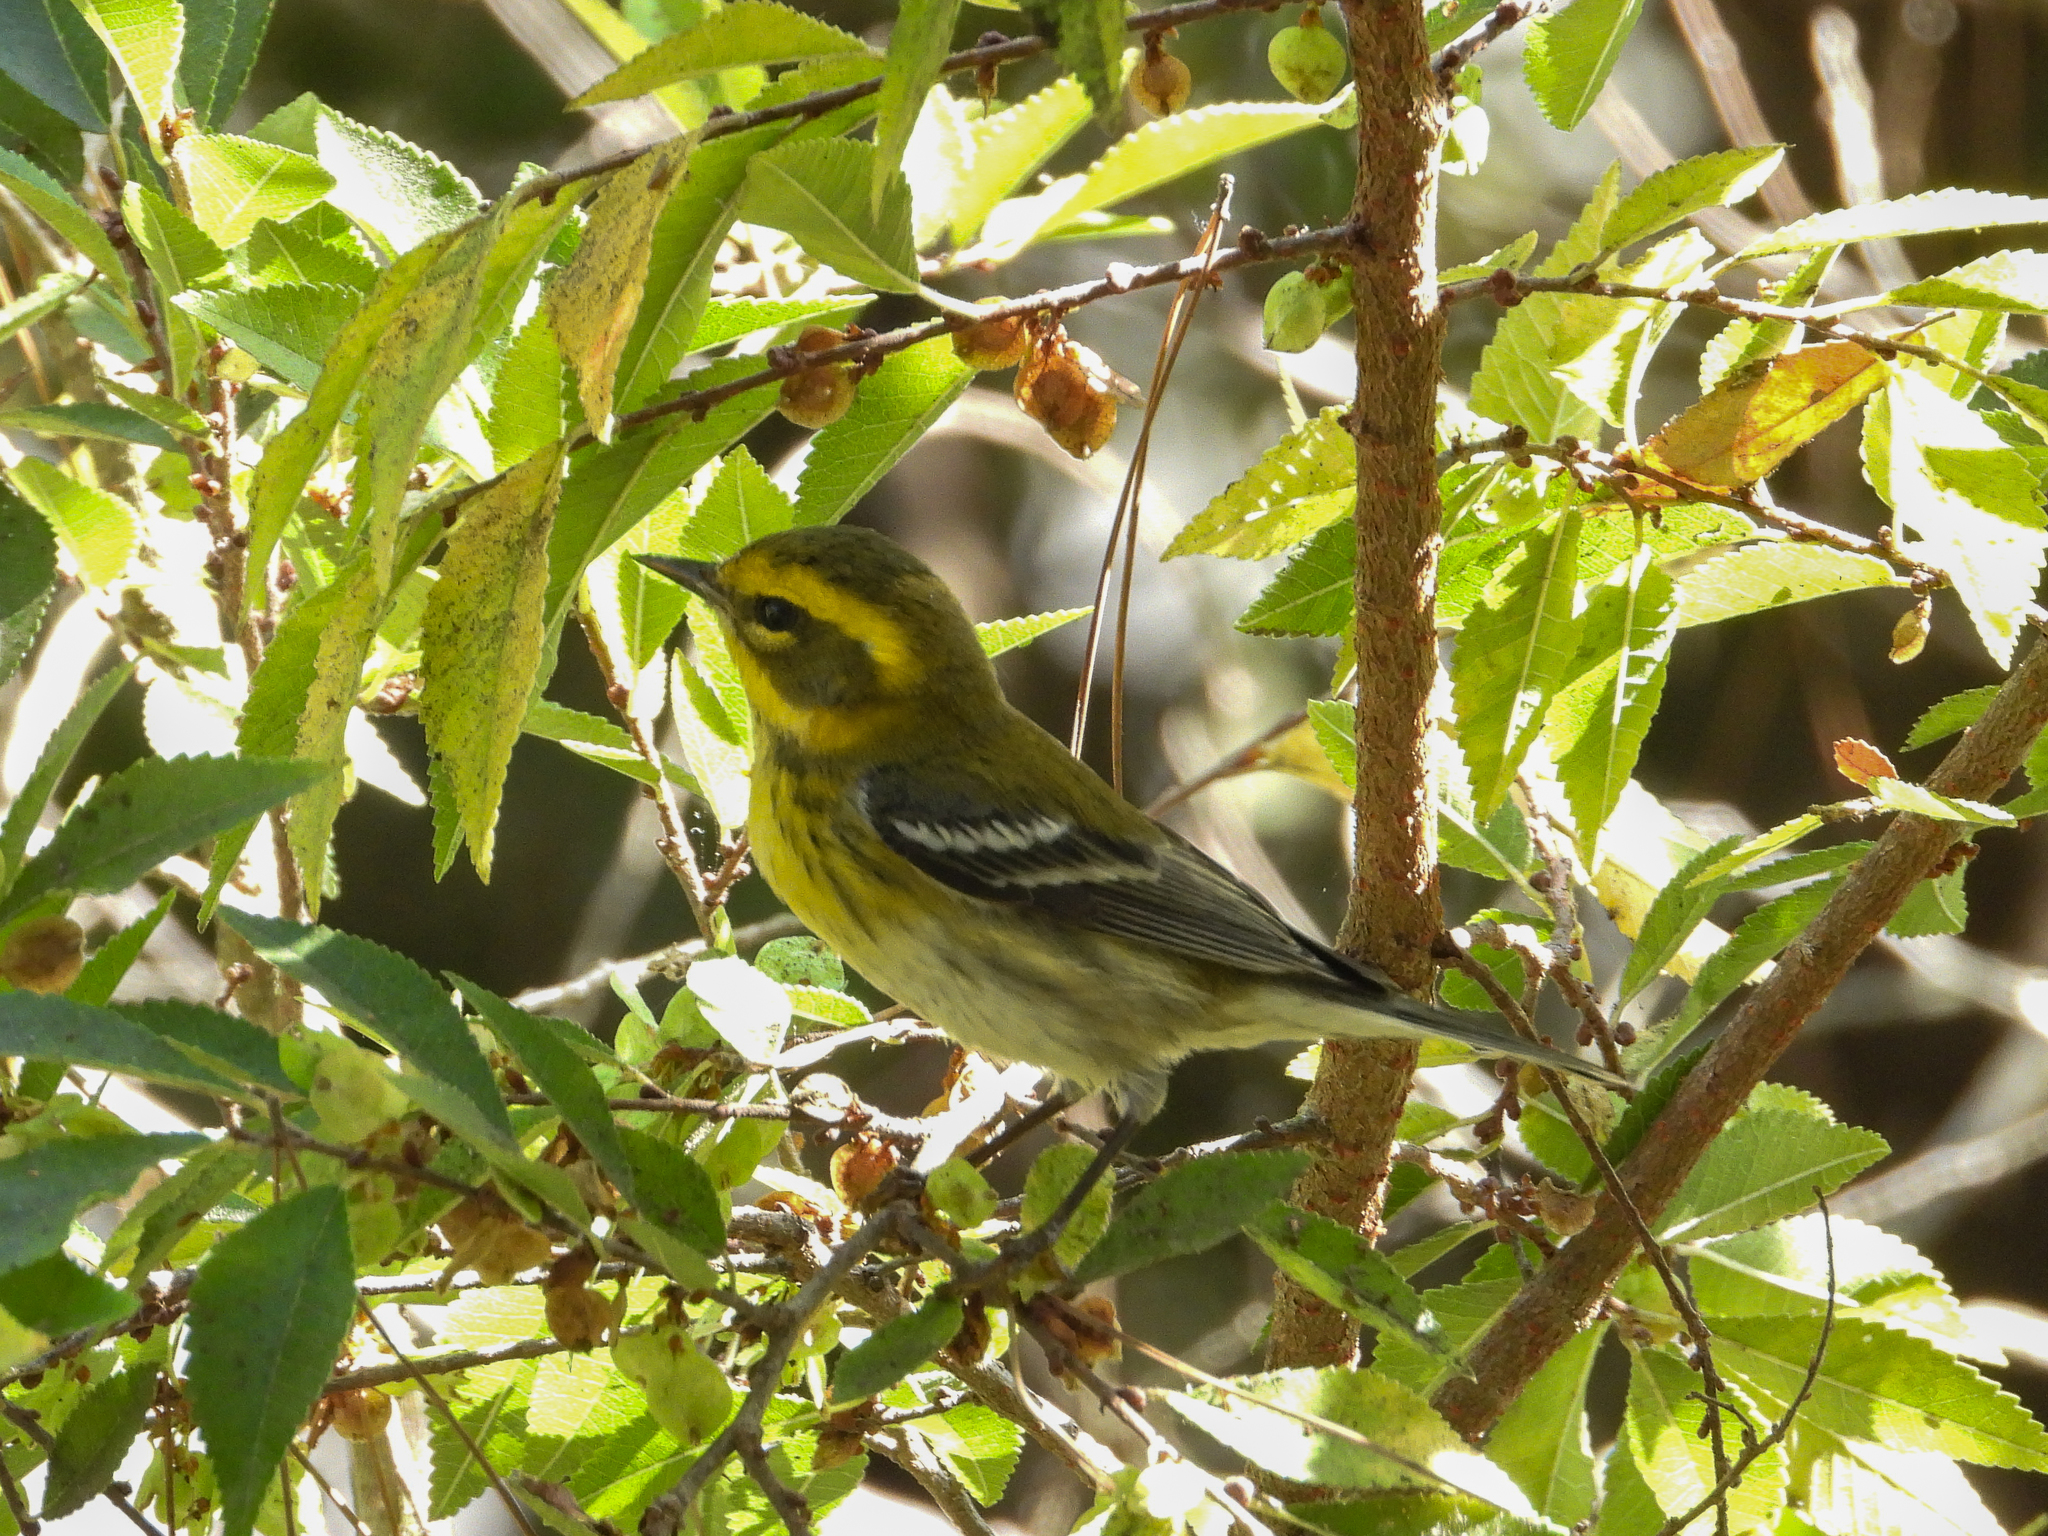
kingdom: Animalia
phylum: Chordata
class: Aves
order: Passeriformes
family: Parulidae
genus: Setophaga
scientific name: Setophaga townsendi
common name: Townsend's warbler
